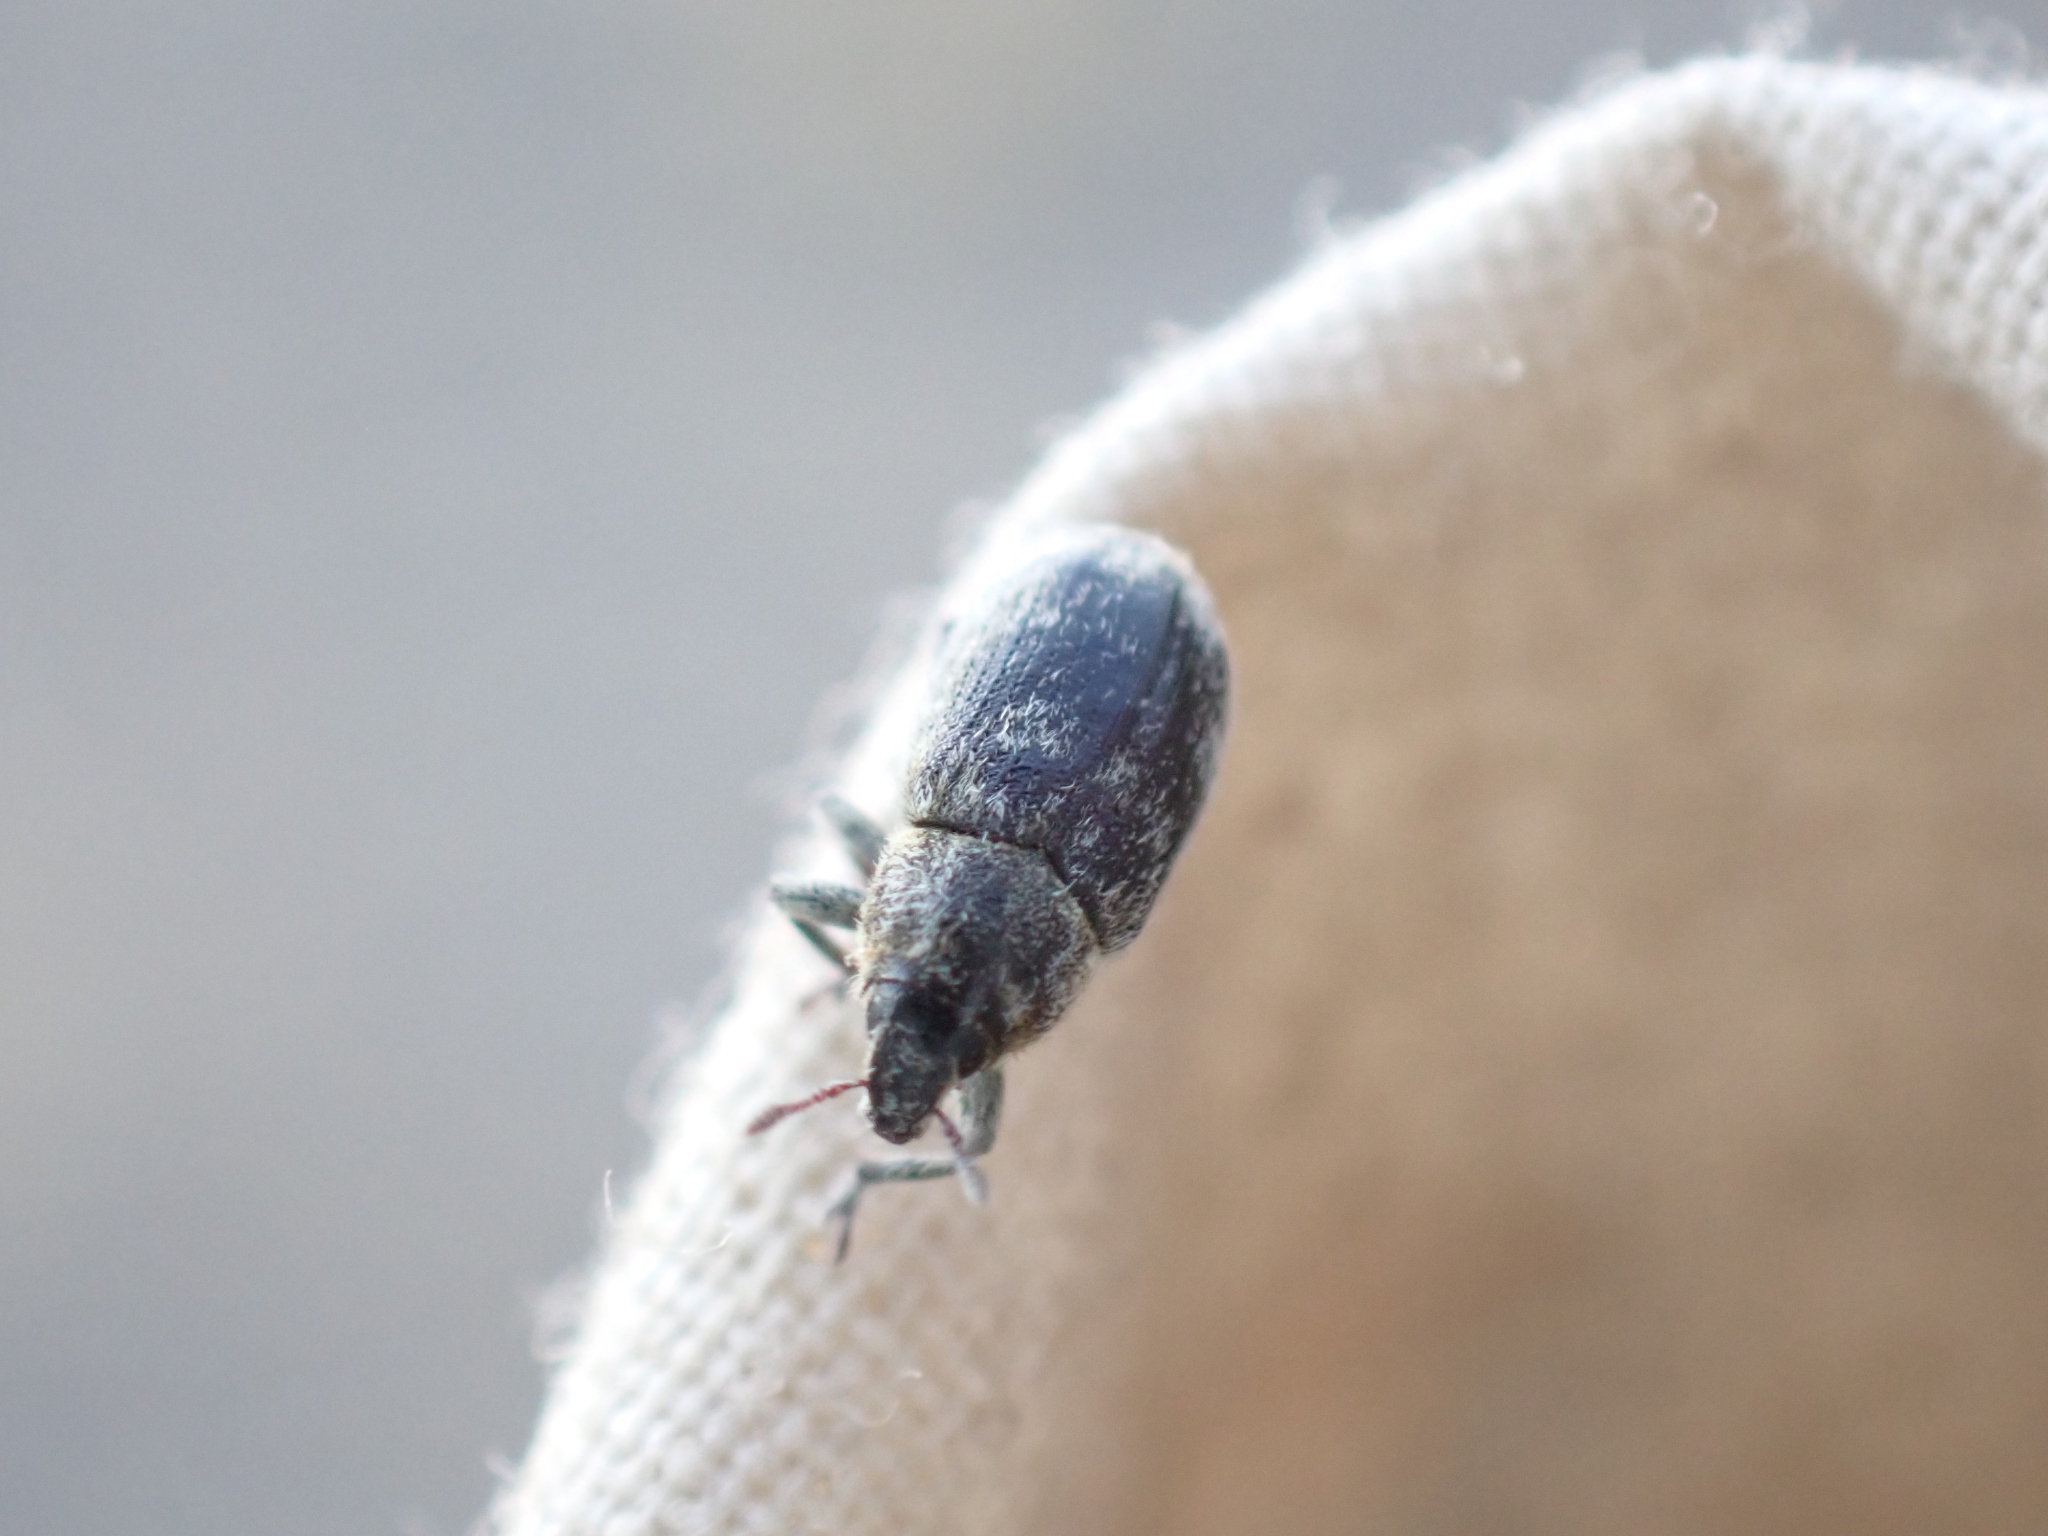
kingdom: Animalia
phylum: Arthropoda
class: Insecta
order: Coleoptera
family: Curculionidae
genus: Bangasternus
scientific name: Bangasternus fausti
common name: Broad-nosed knapweed seedhead weevil
